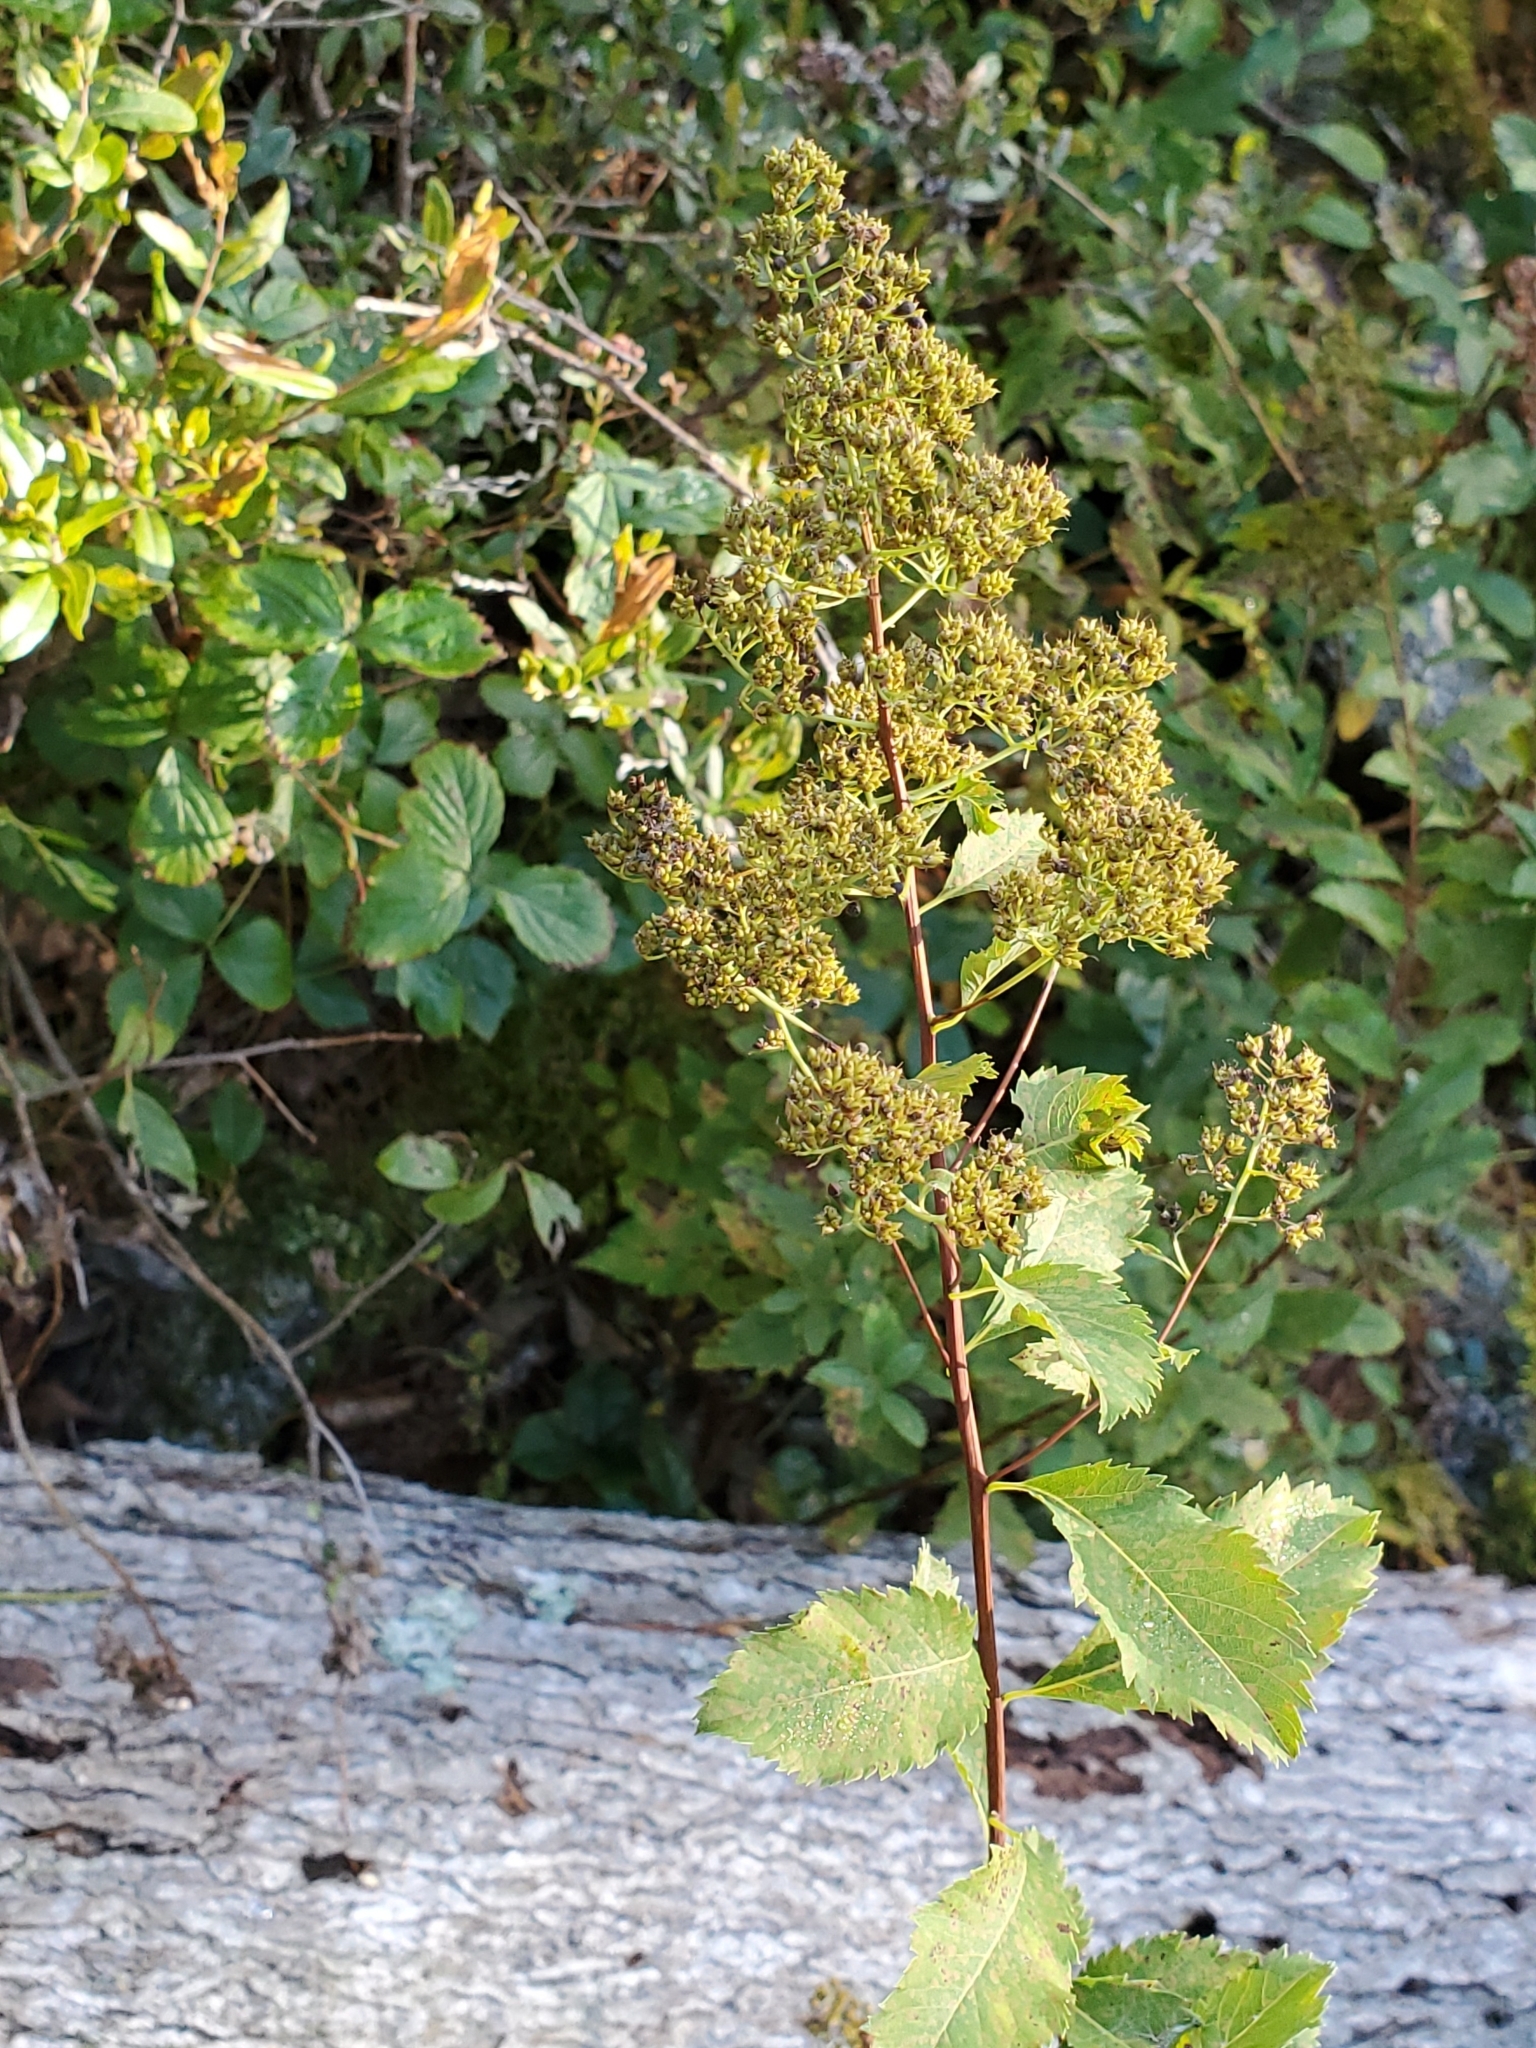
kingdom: Plantae
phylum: Tracheophyta
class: Magnoliopsida
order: Rosales
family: Rosaceae
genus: Spiraea
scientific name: Spiraea alba
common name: Pale bridewort
